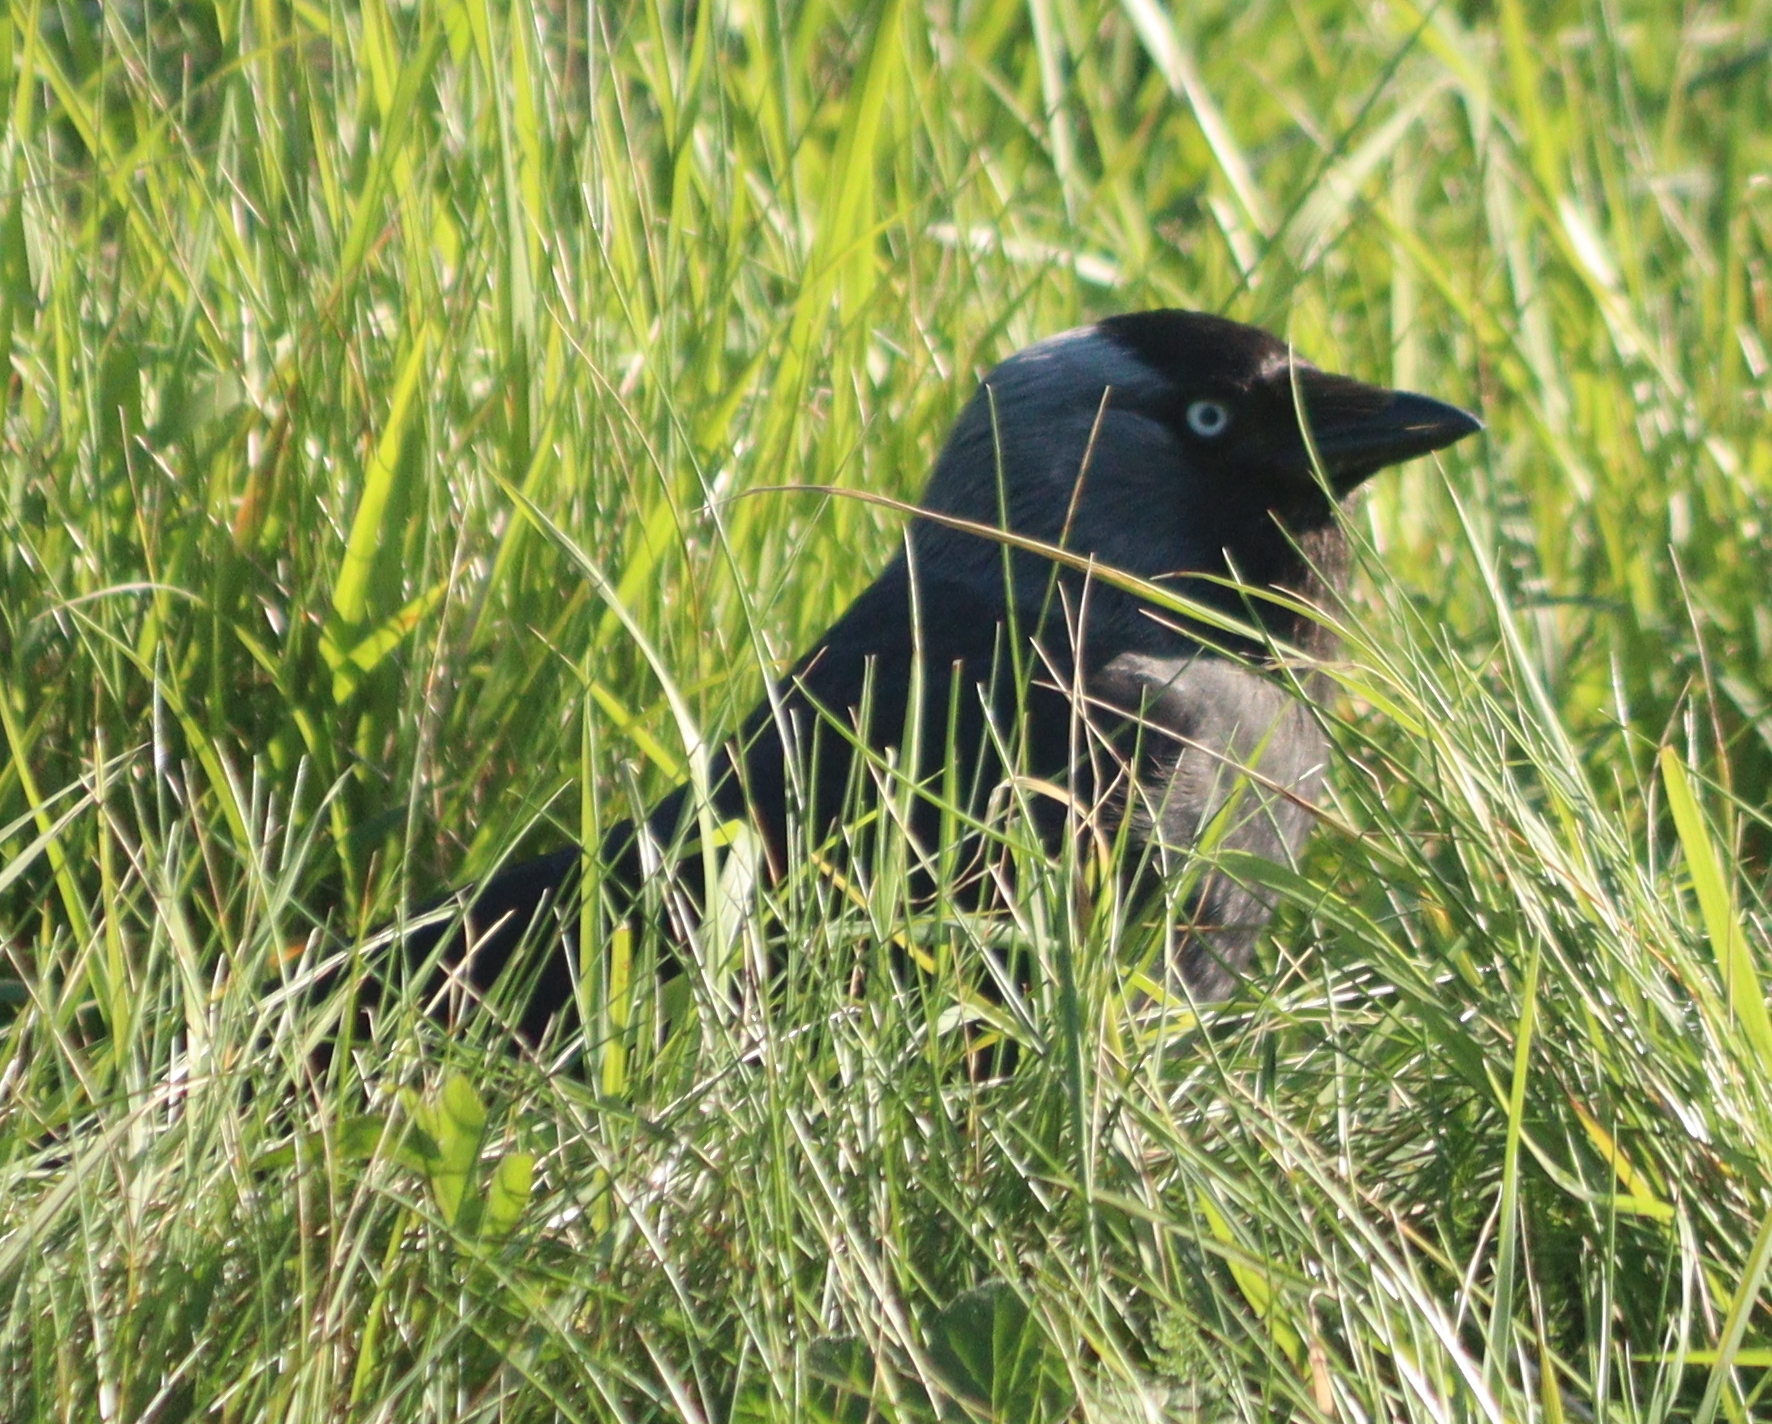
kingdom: Animalia
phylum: Chordata
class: Aves
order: Passeriformes
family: Corvidae
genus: Coloeus
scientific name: Coloeus monedula
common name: Western jackdaw
